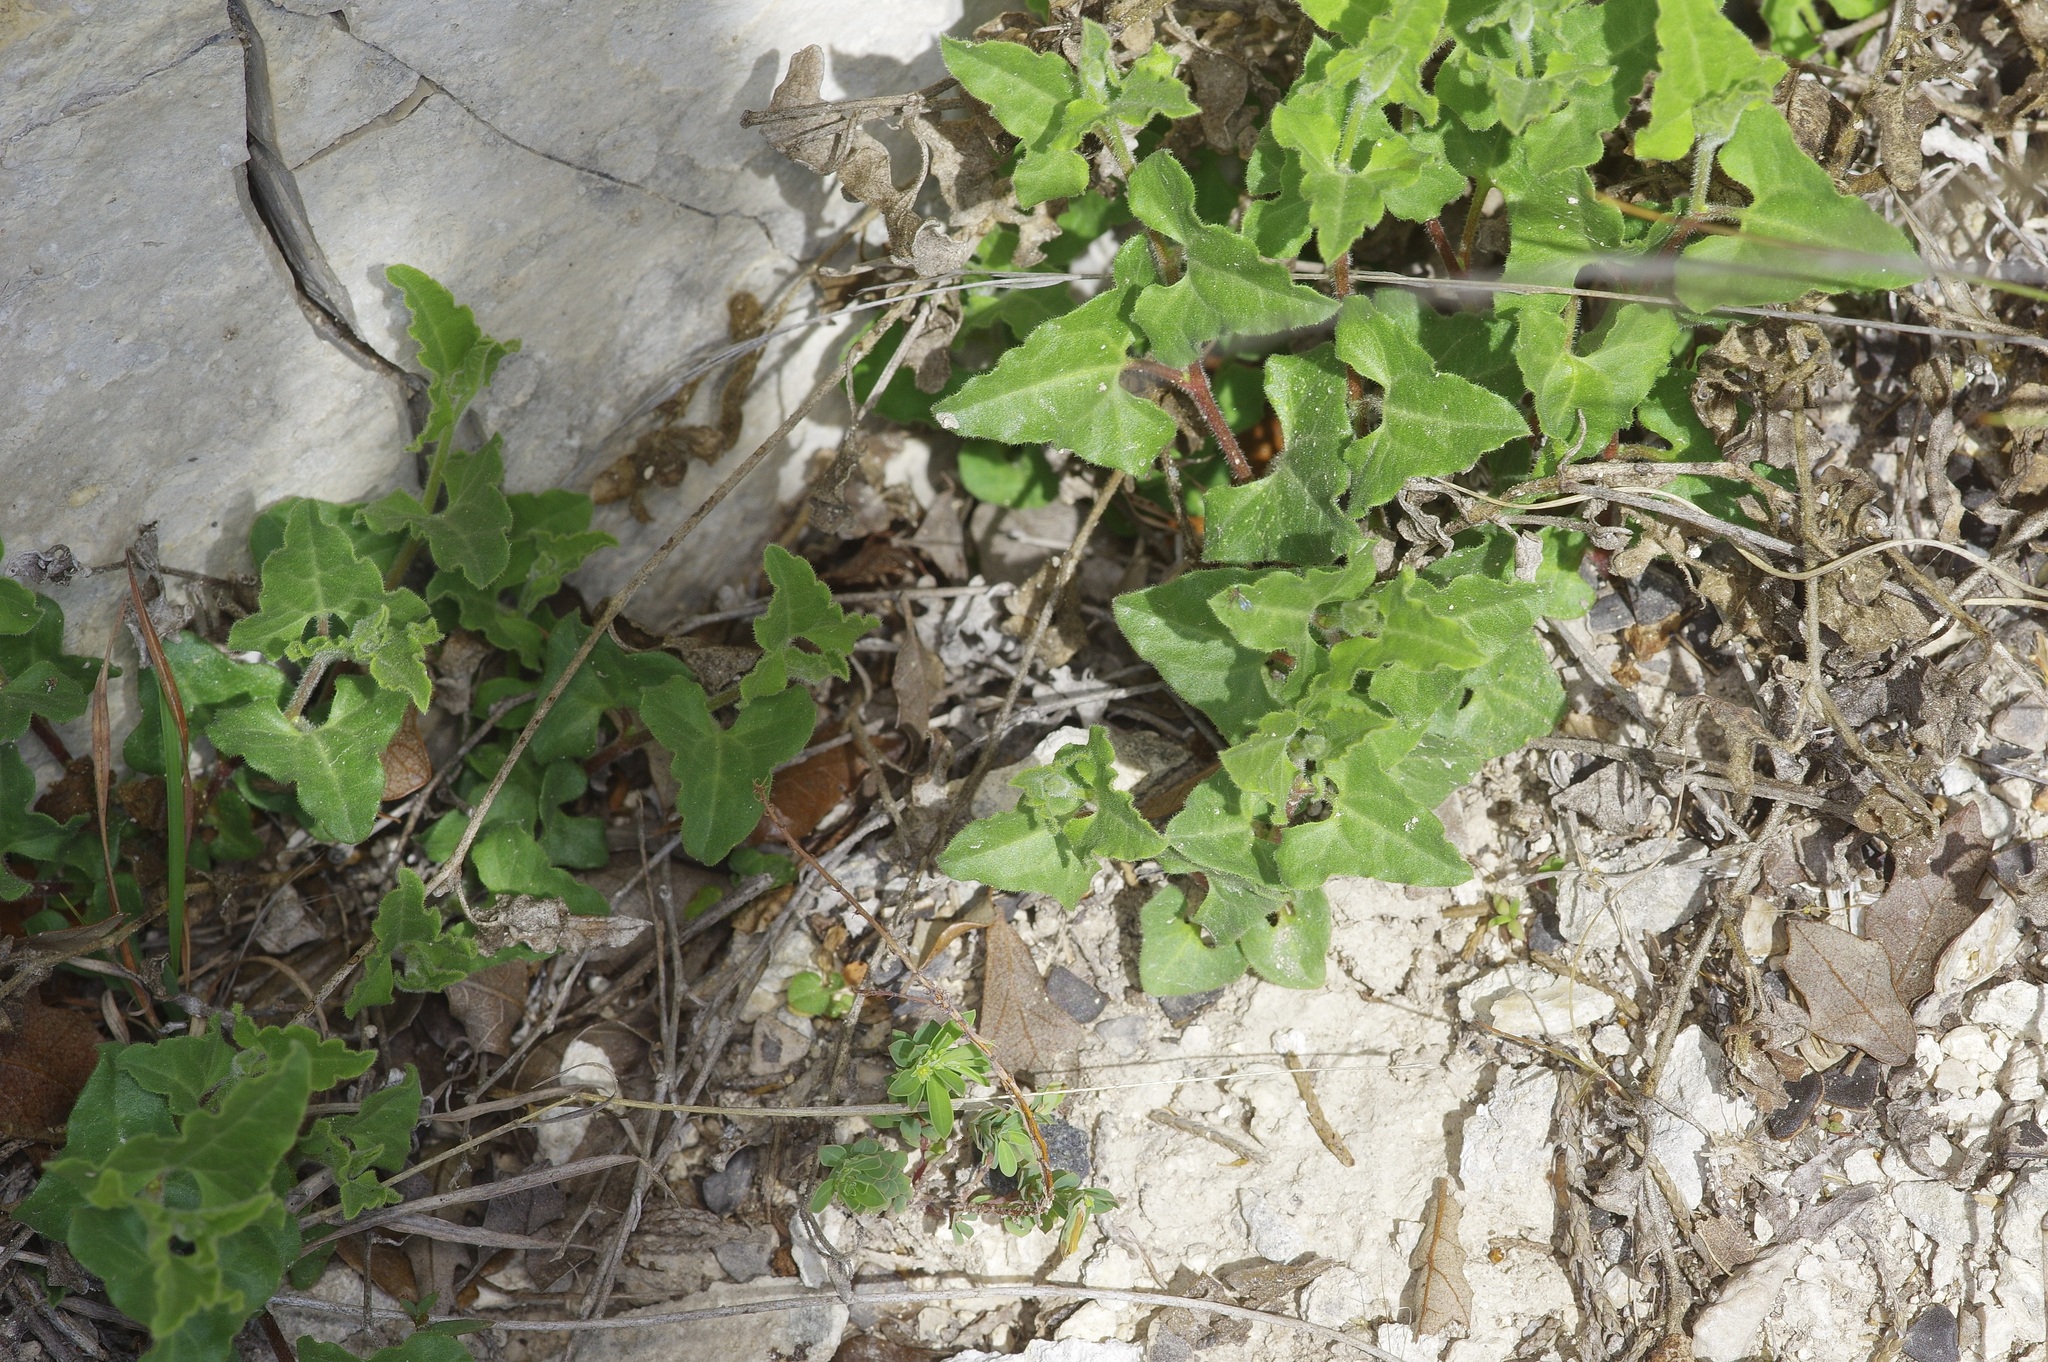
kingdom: Plantae
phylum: Tracheophyta
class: Magnoliopsida
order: Piperales
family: Aristolochiaceae
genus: Aristolochia
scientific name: Aristolochia coryi
